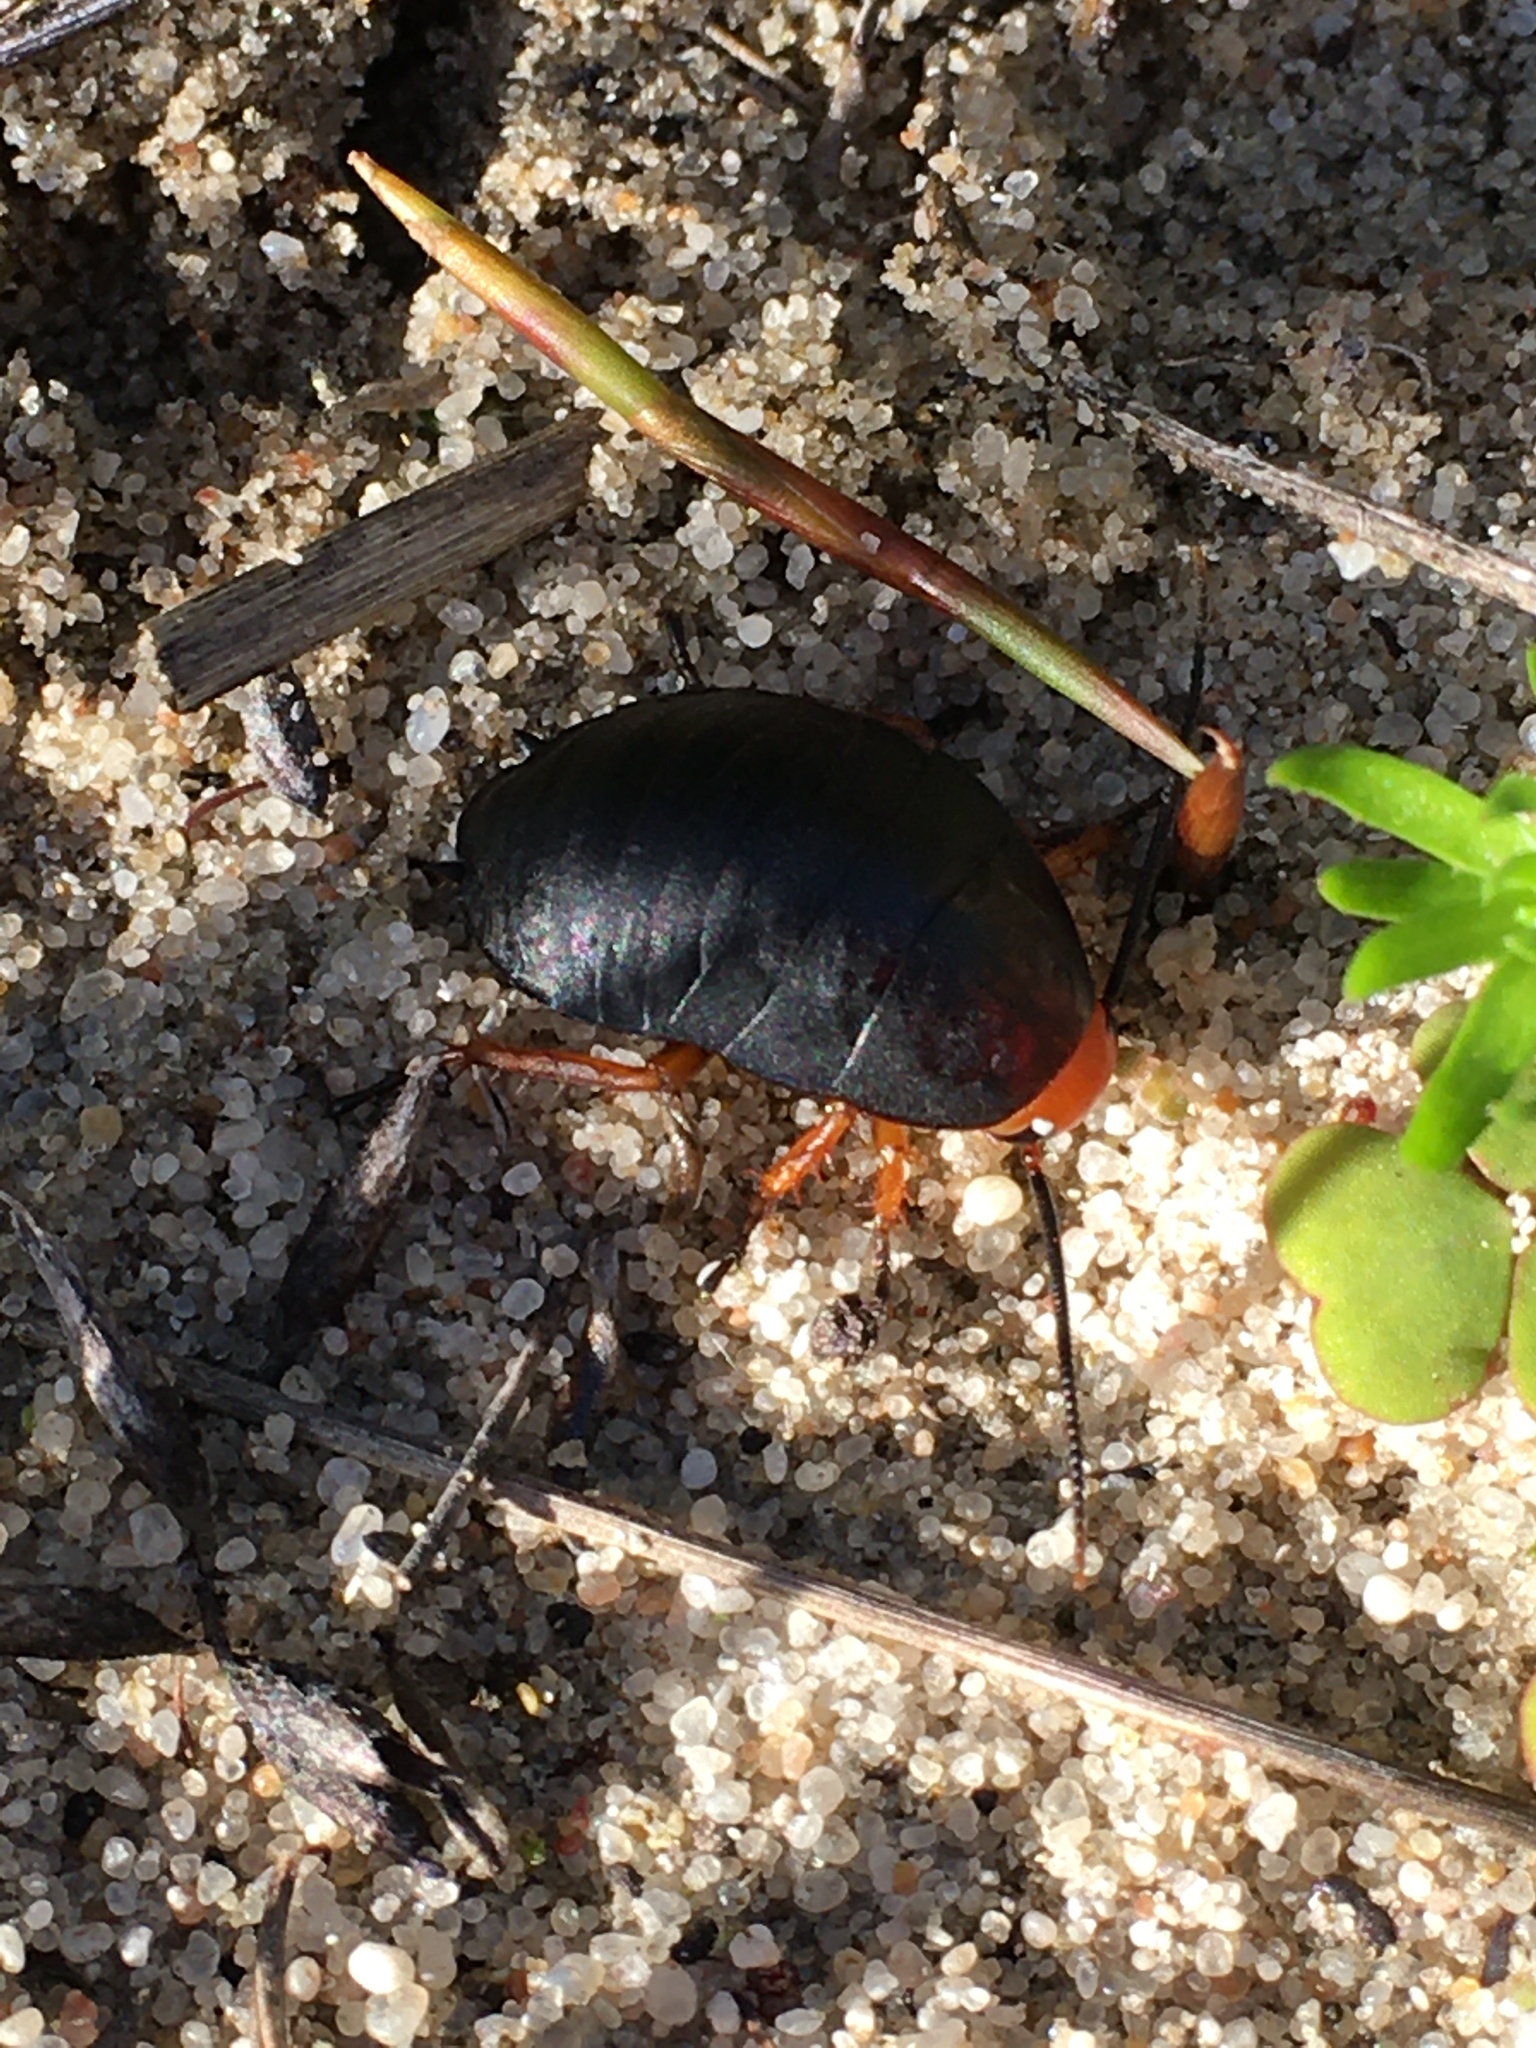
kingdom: Animalia
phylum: Arthropoda
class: Insecta
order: Blattodea
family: Blattidae
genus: Deropeltis
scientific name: Deropeltis erythrocephala
